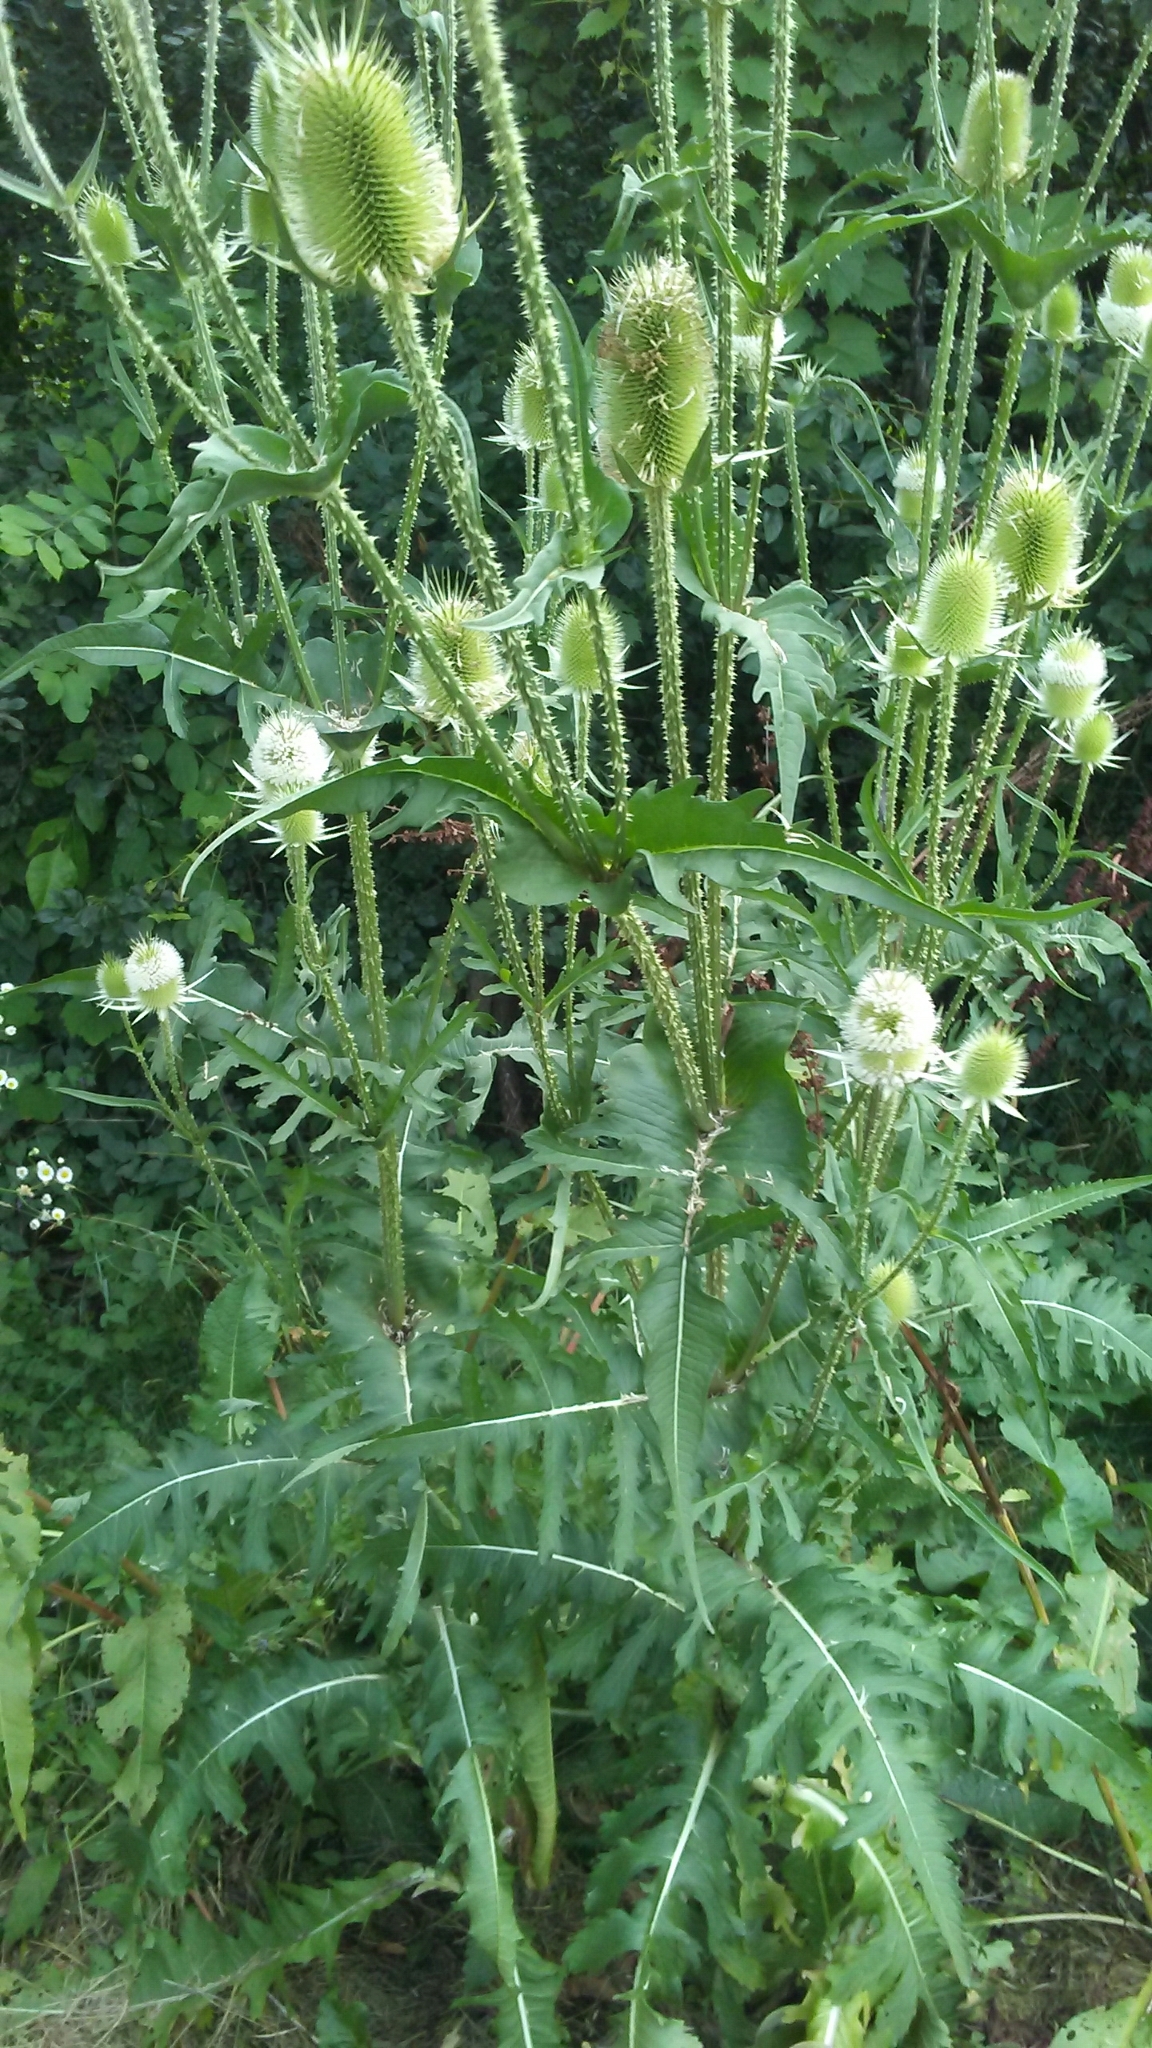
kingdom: Plantae
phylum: Tracheophyta
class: Magnoliopsida
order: Dipsacales
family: Caprifoliaceae
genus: Dipsacus
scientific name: Dipsacus laciniatus
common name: Cut-leaved teasel
